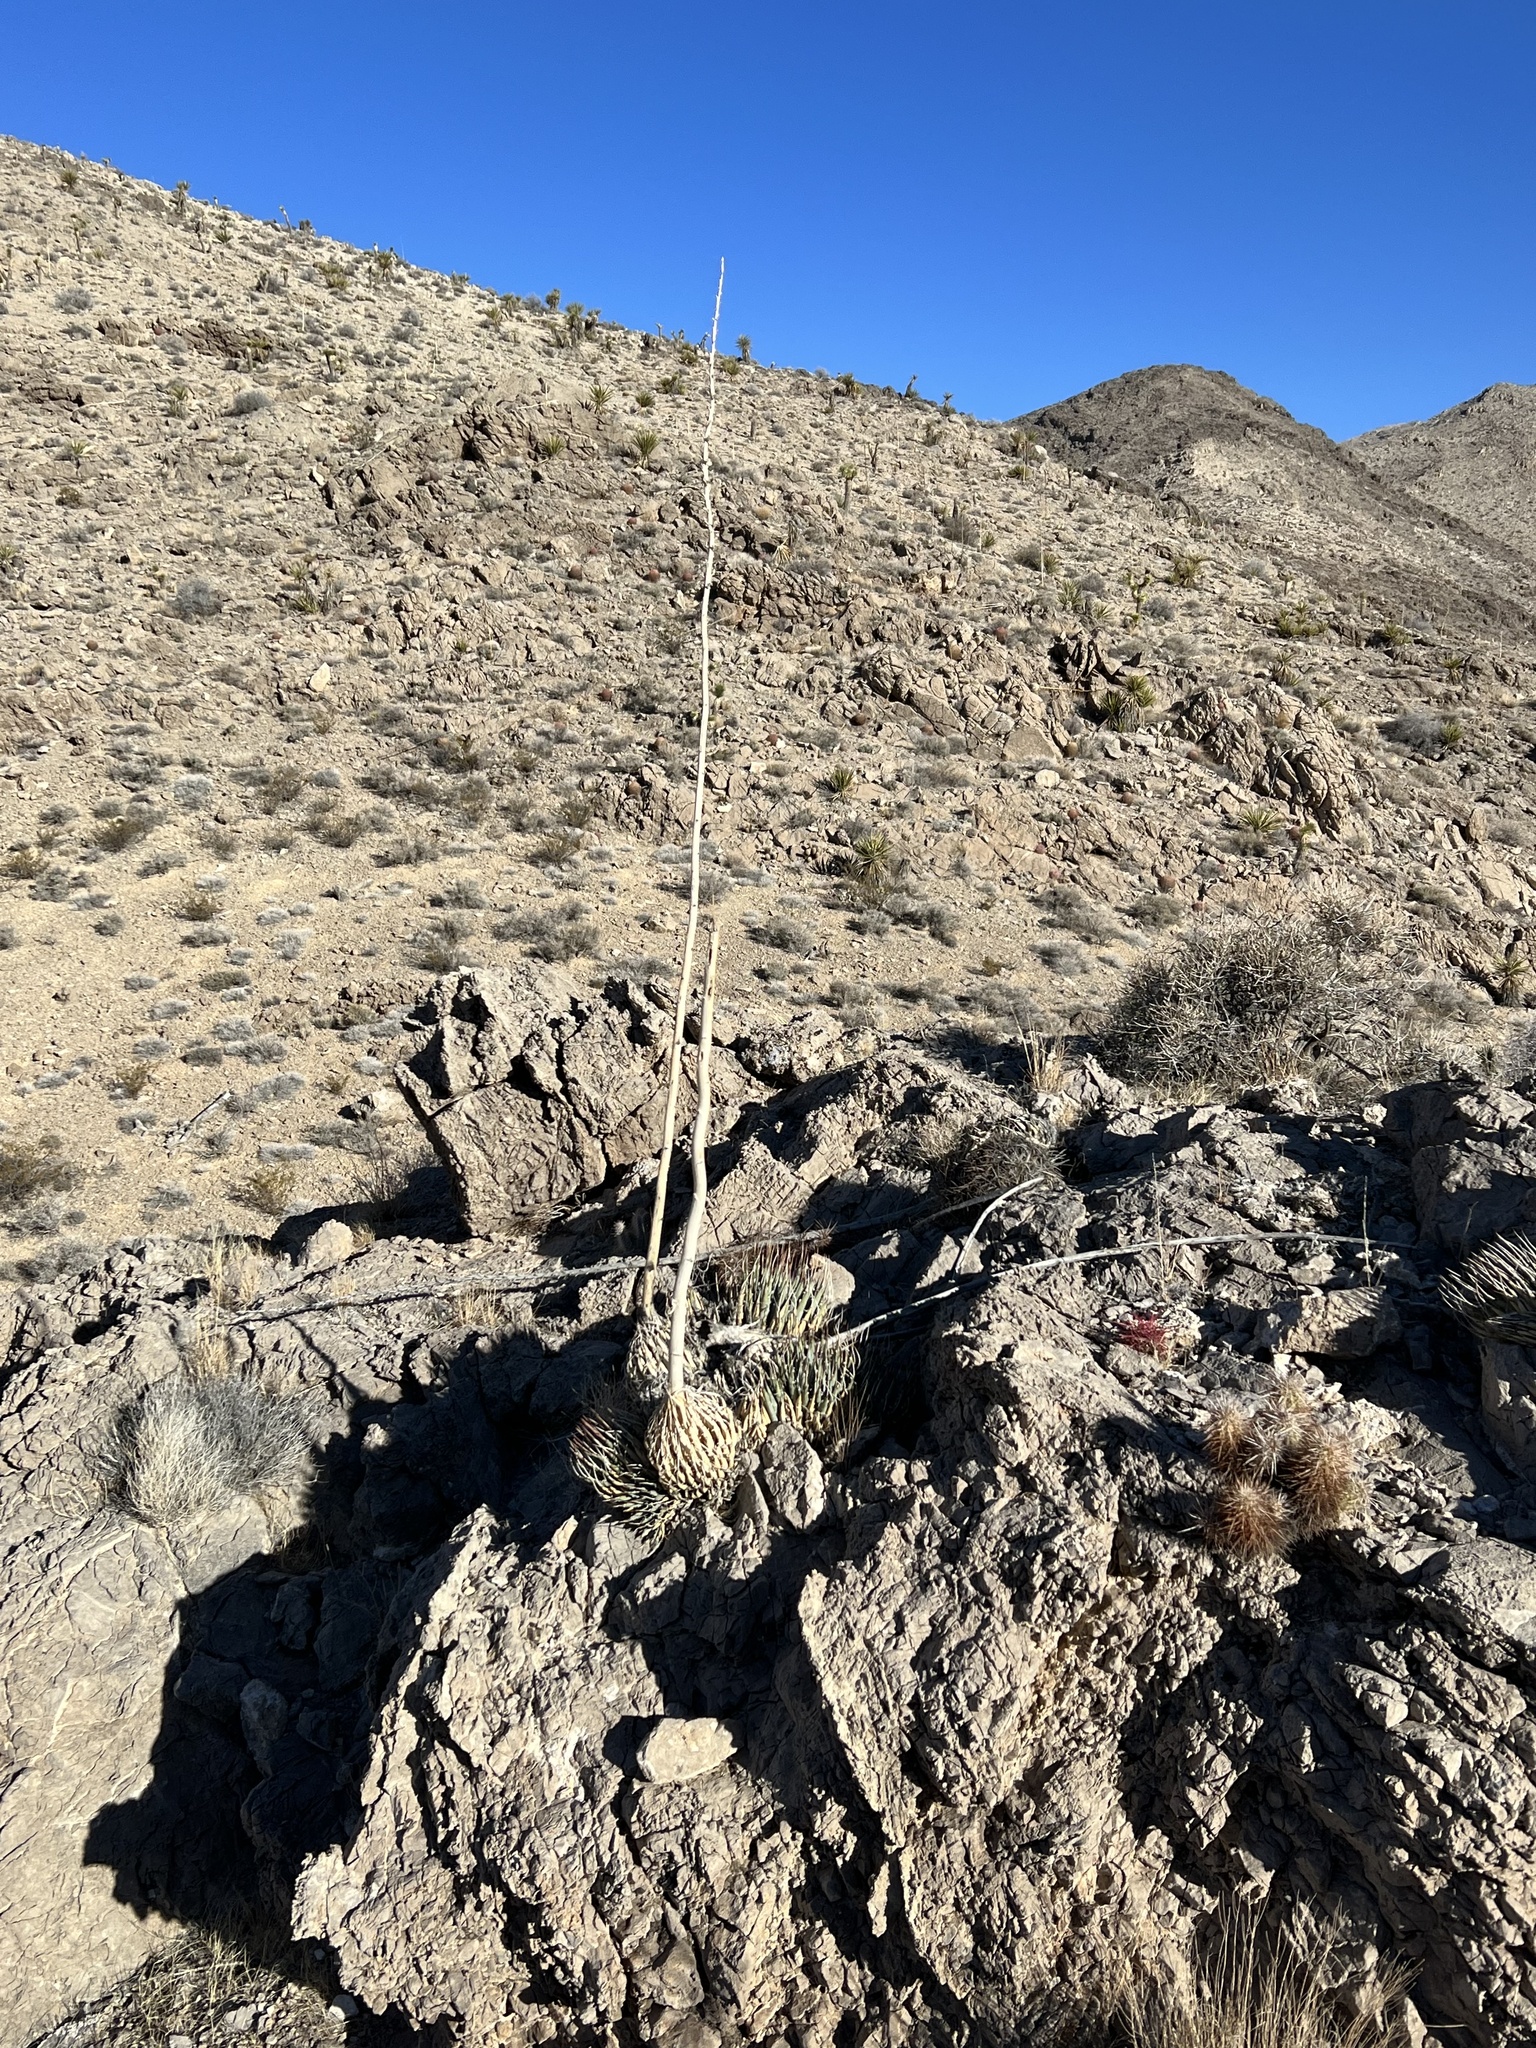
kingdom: Plantae
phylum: Tracheophyta
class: Liliopsida
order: Asparagales
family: Asparagaceae
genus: Agave
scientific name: Agave utahensis
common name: Utah agave
